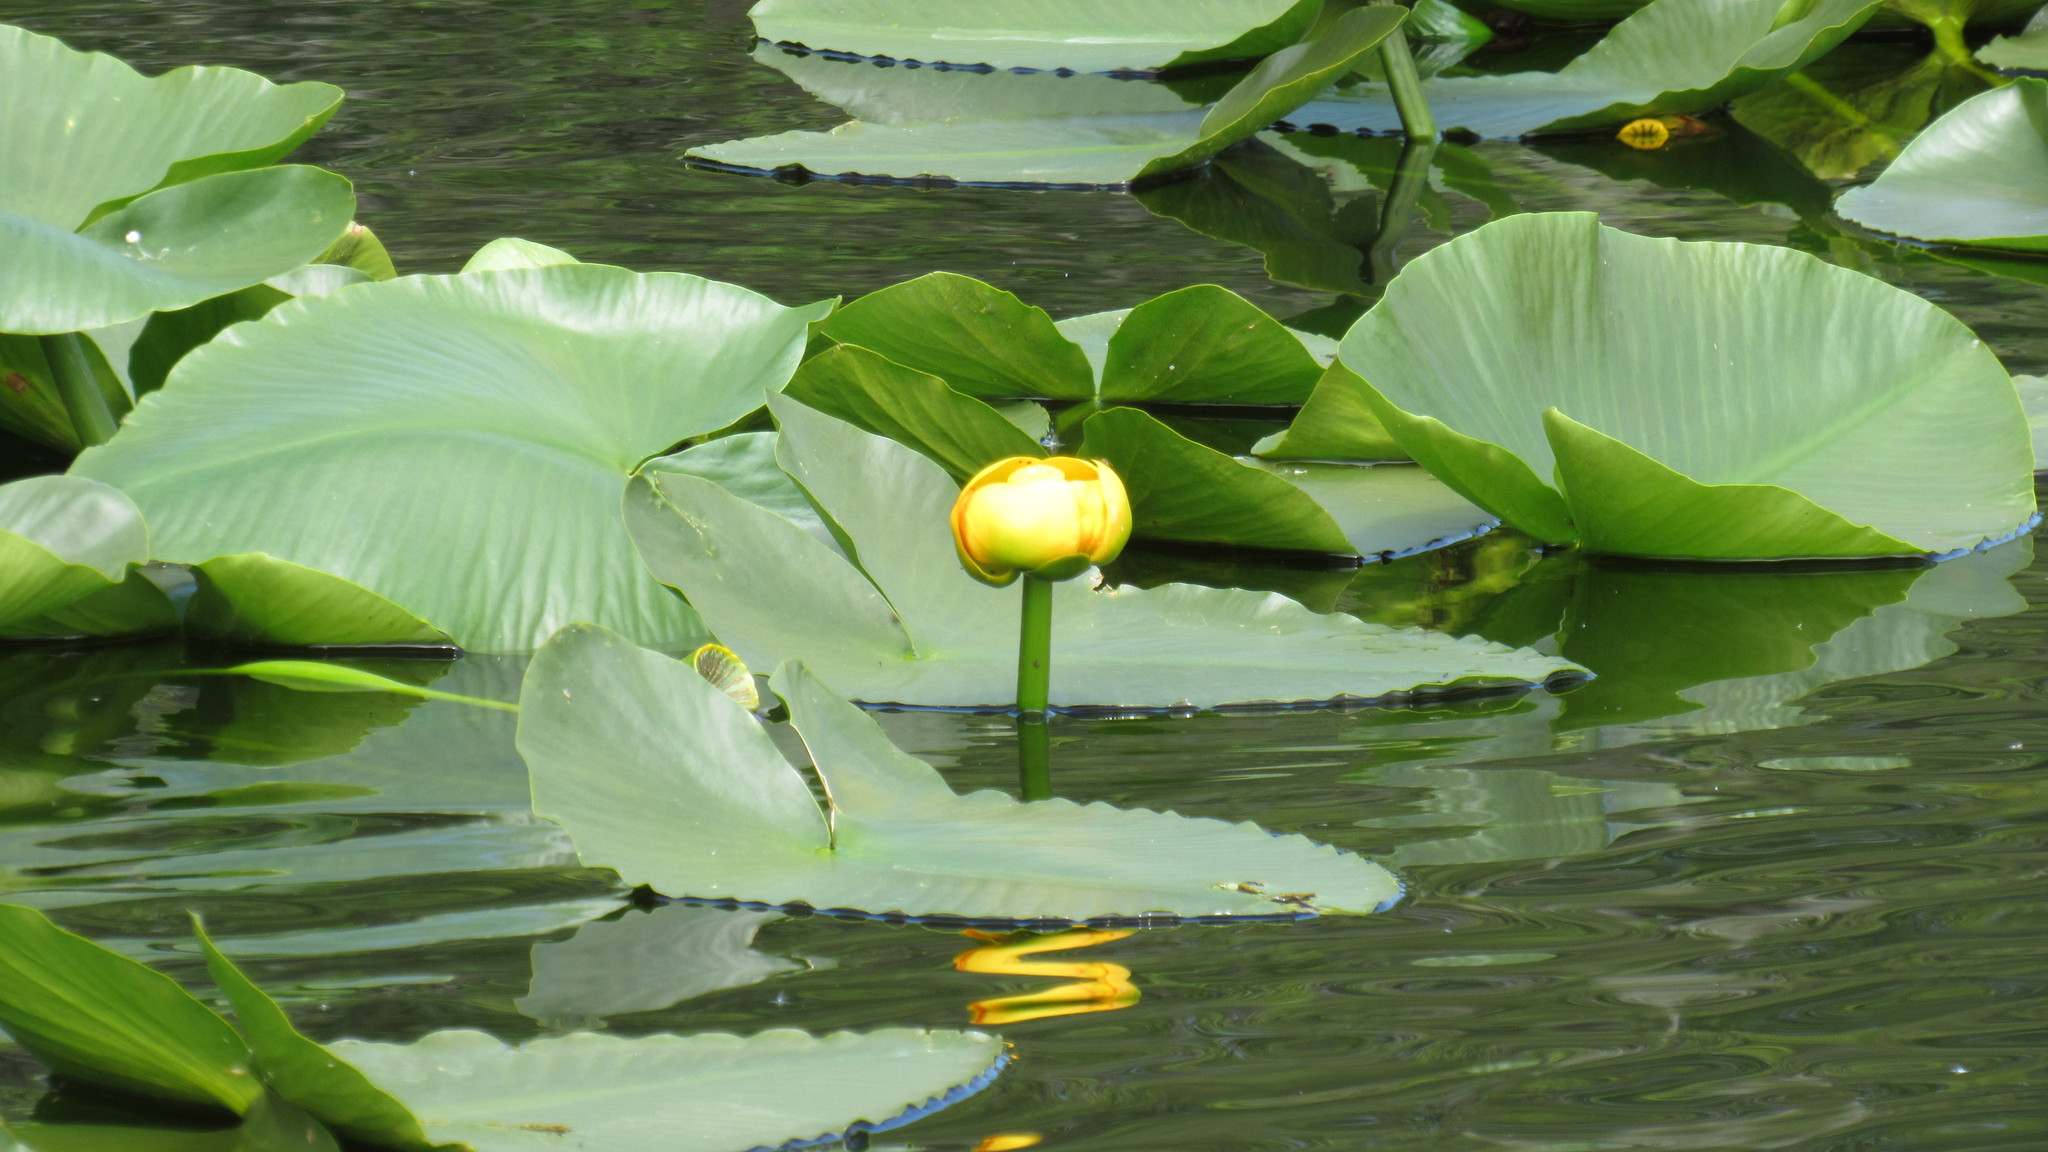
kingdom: Plantae
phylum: Tracheophyta
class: Magnoliopsida
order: Nymphaeales
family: Nymphaeaceae
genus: Nuphar
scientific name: Nuphar polysepala
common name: Rocky mountain cow-lily
